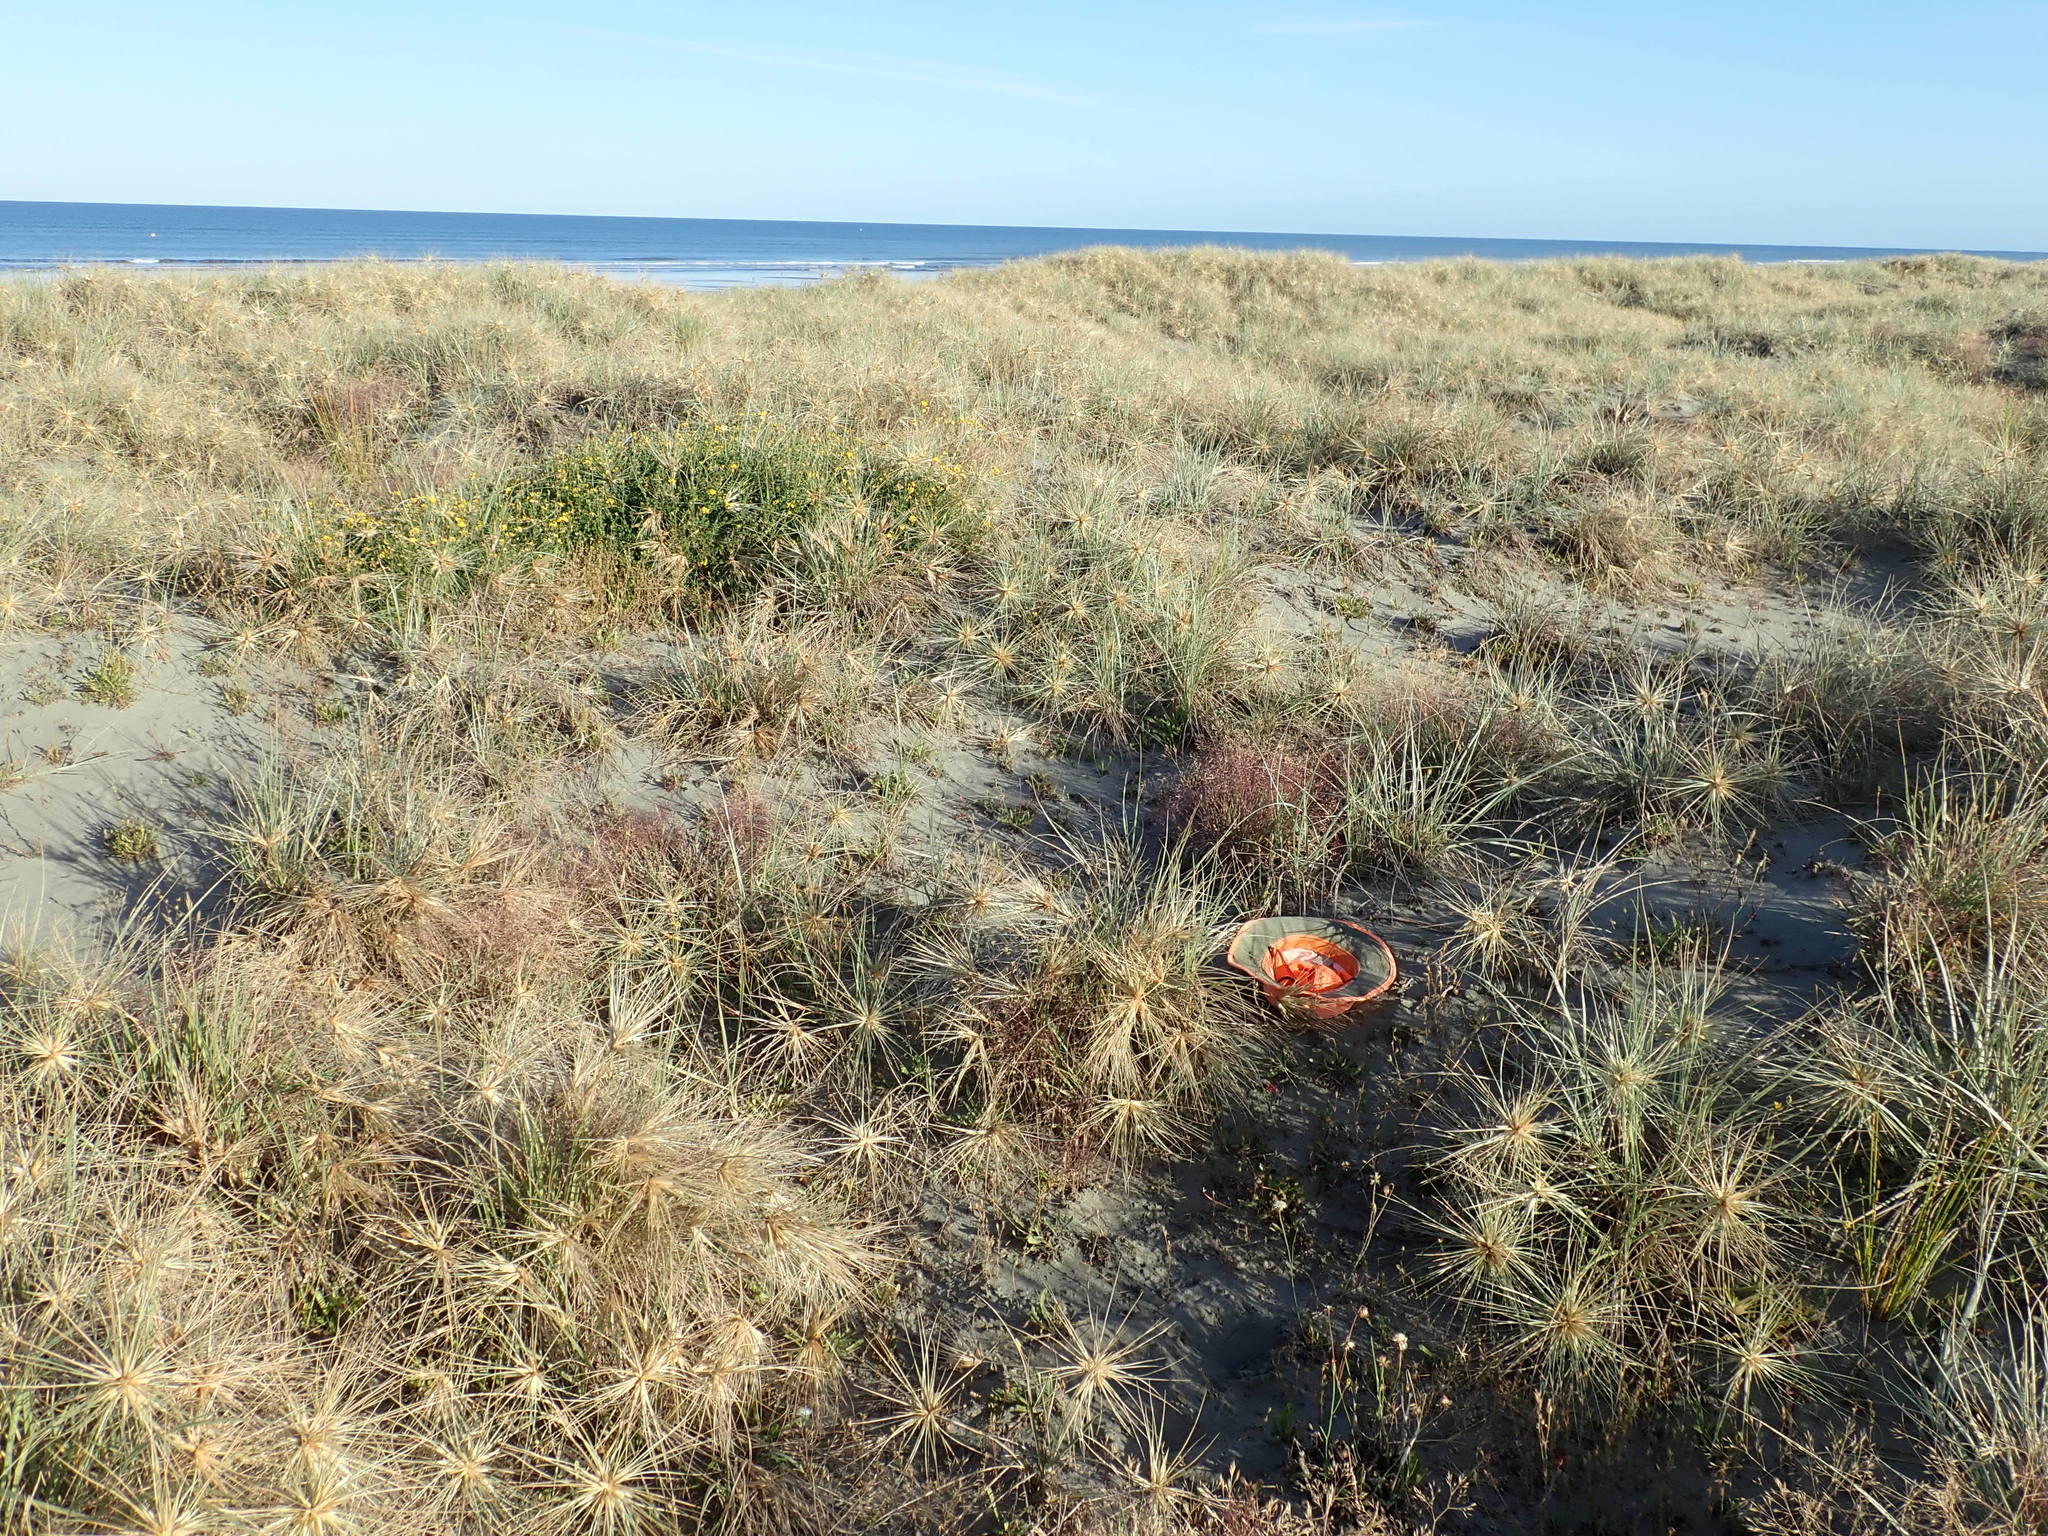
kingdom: Plantae
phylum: Tracheophyta
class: Liliopsida
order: Poales
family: Poaceae
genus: Spinifex
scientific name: Spinifex sericeus
